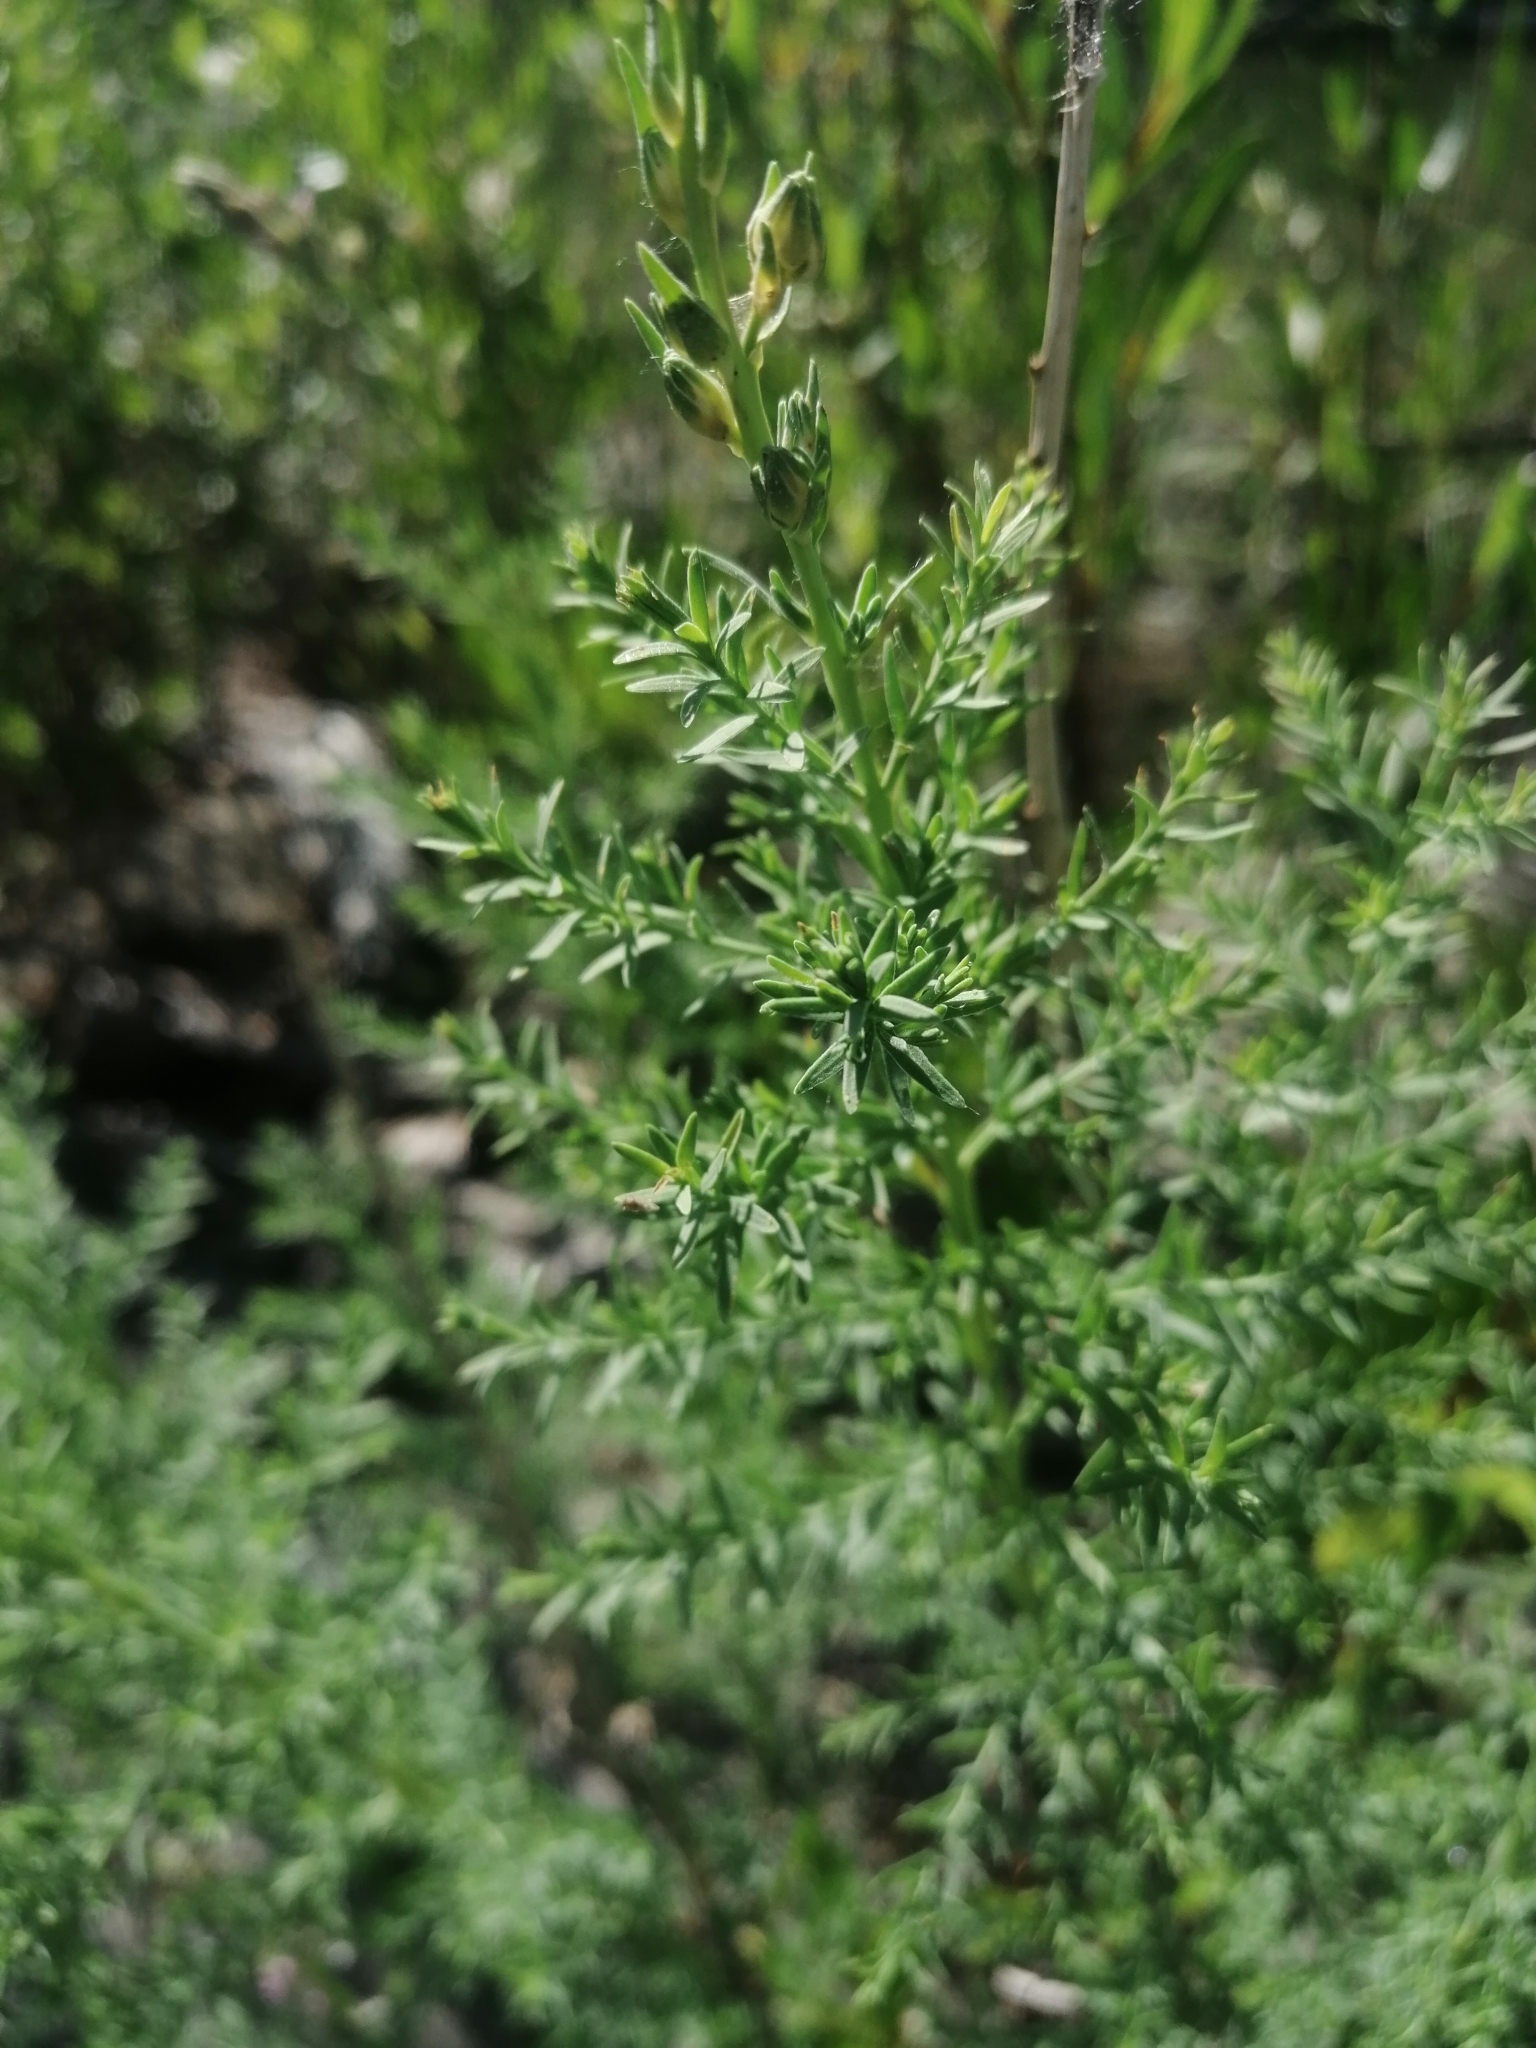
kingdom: Plantae
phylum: Tracheophyta
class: Magnoliopsida
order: Caryophyllales
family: Tamaricaceae
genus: Myricaria
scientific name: Myricaria longifolia
